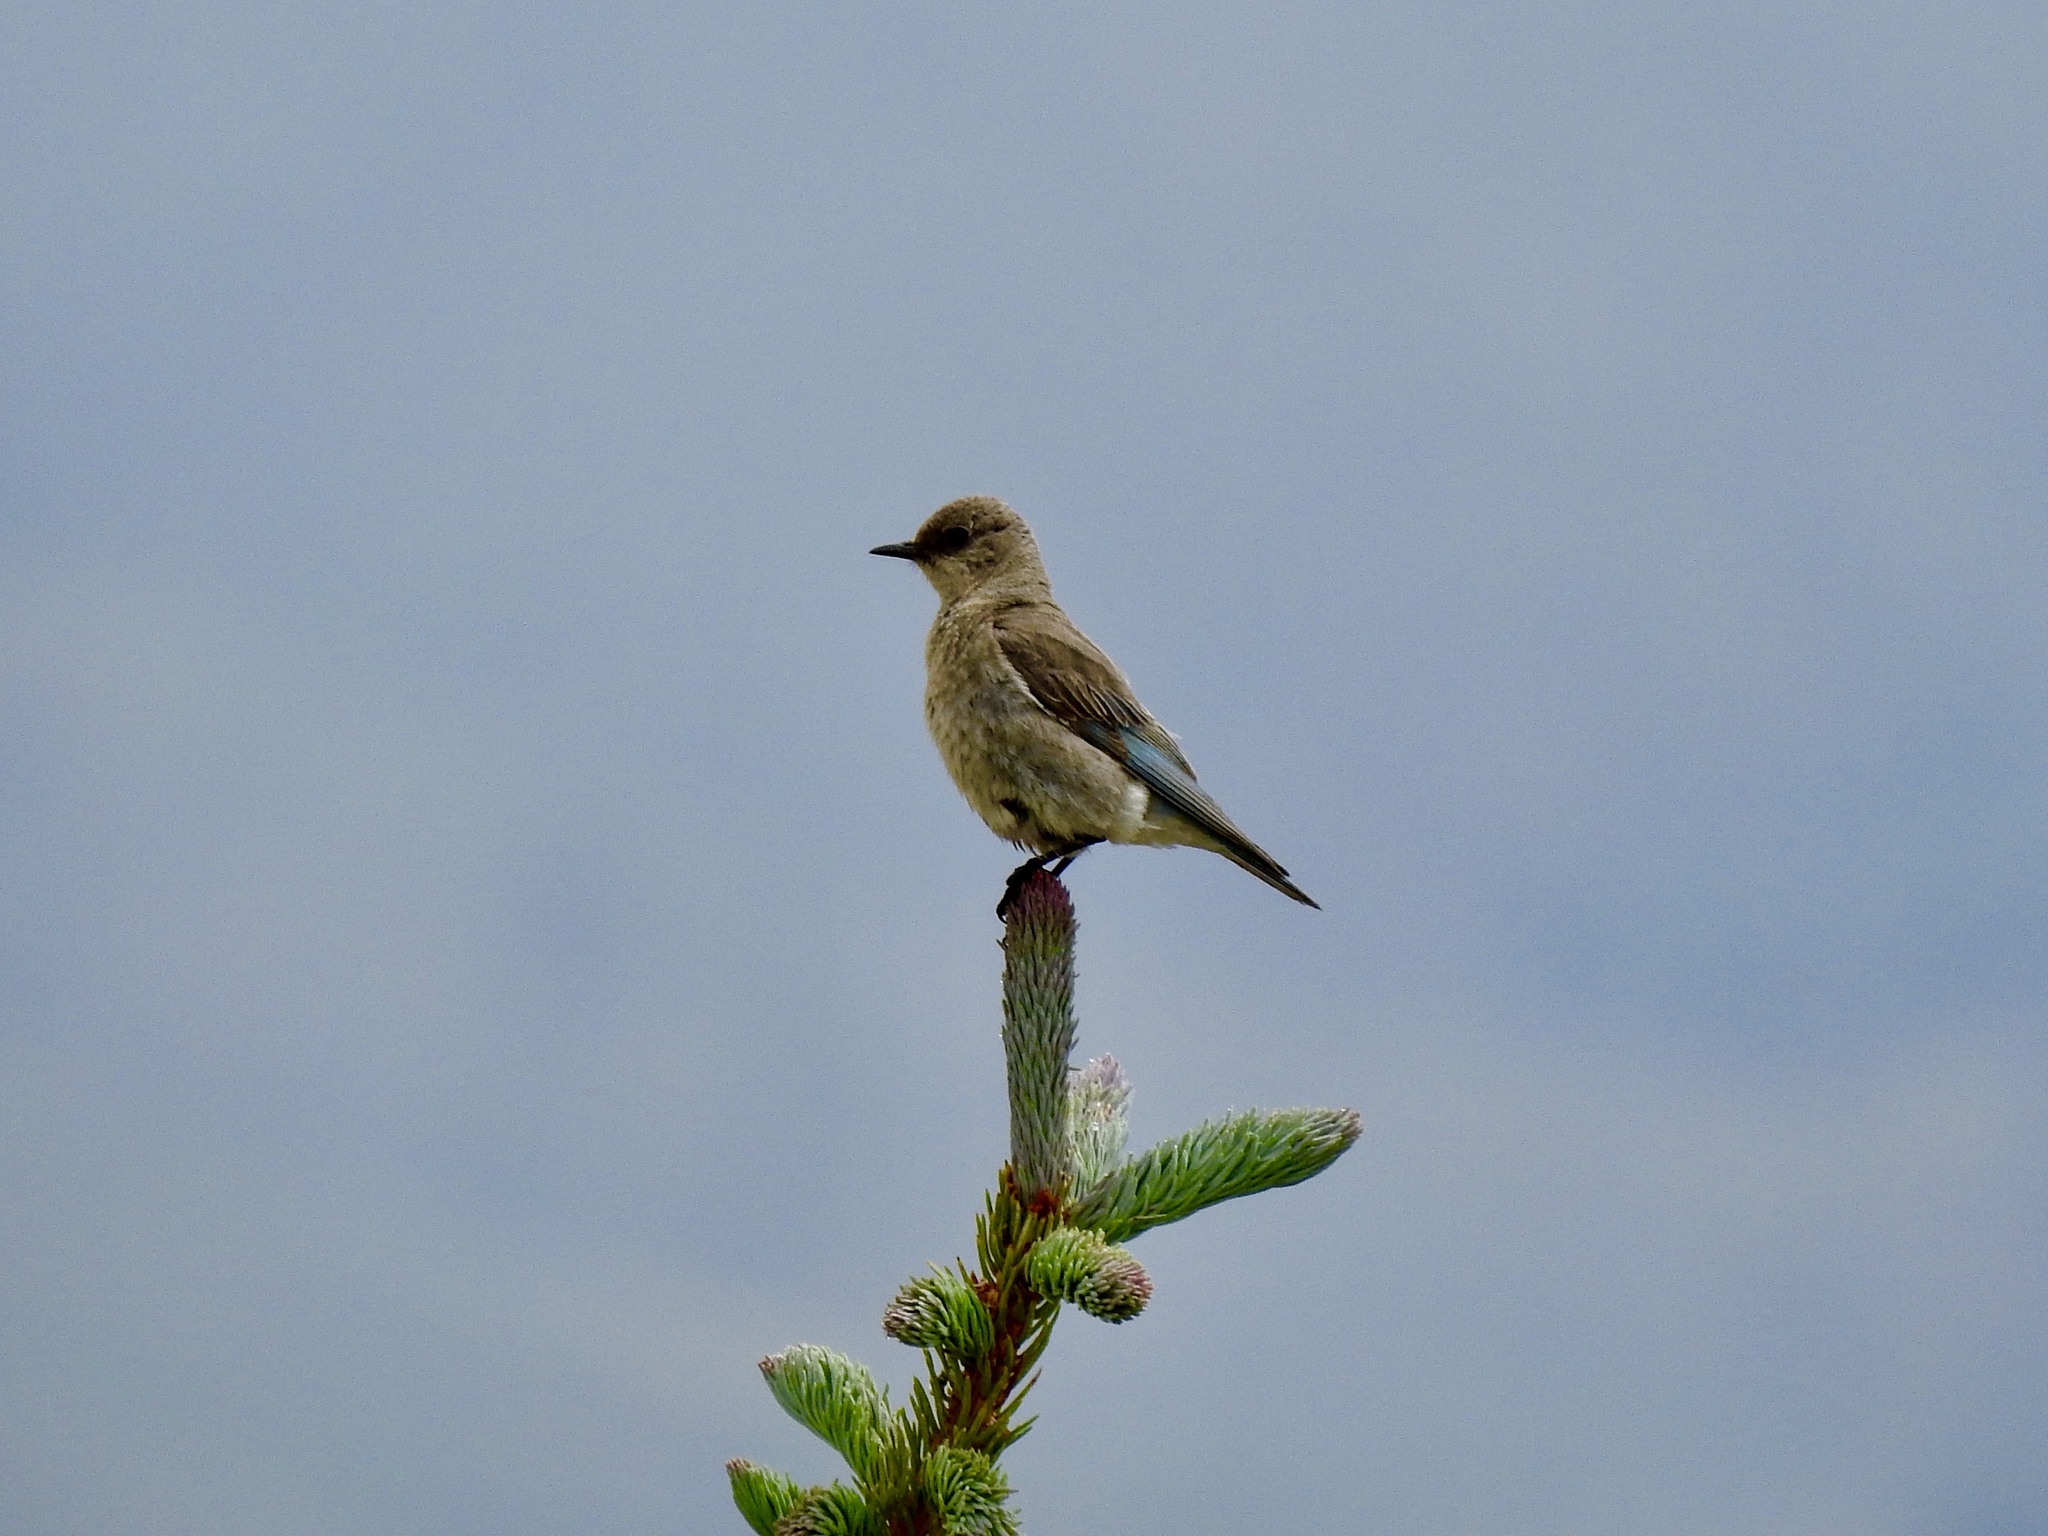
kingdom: Animalia
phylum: Chordata
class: Aves
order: Passeriformes
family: Turdidae
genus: Sialia
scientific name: Sialia currucoides
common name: Mountain bluebird
